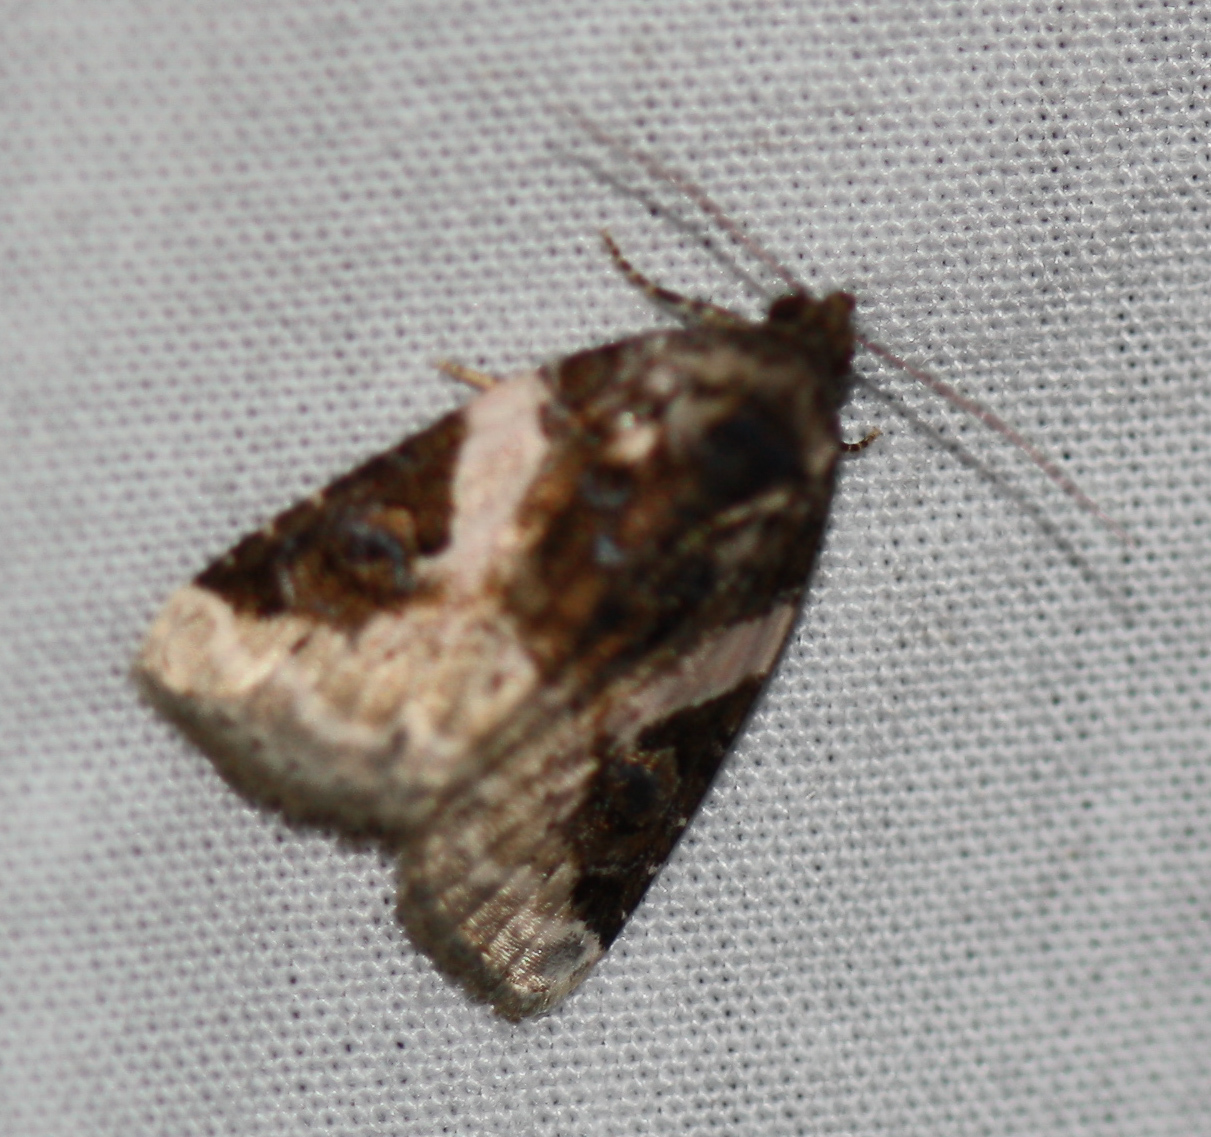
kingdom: Animalia
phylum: Arthropoda
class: Insecta
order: Lepidoptera
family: Noctuidae
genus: Pseudeustrotia
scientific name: Pseudeustrotia carneola
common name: Pink-barred lithacodia moth
